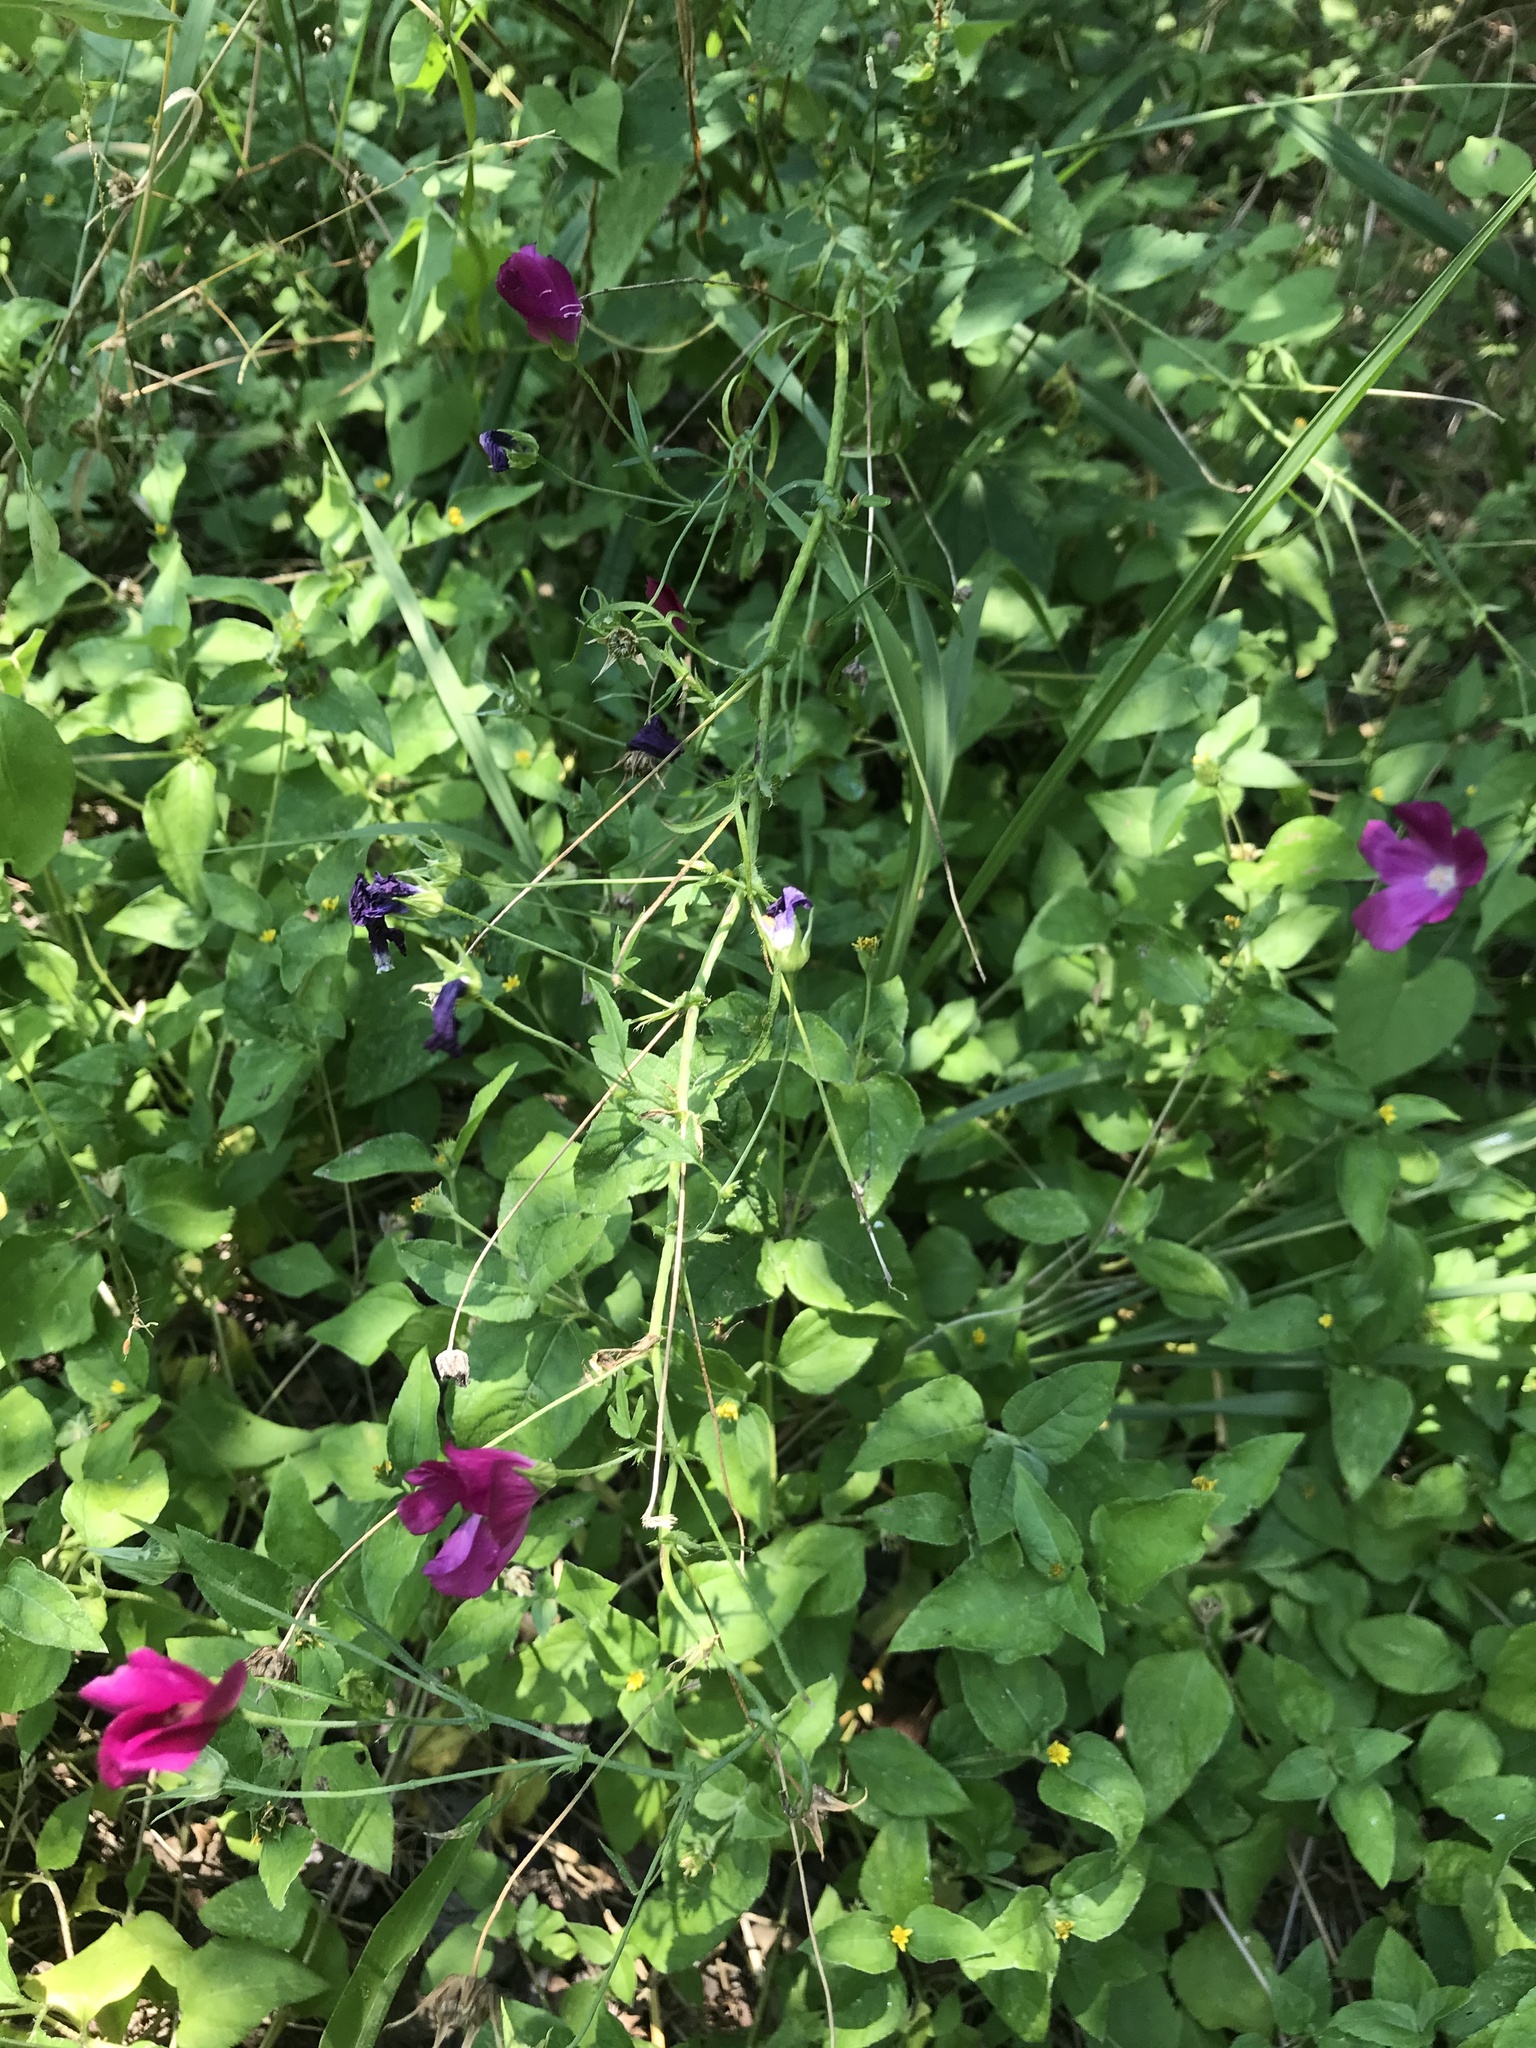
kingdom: Plantae
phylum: Tracheophyta
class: Magnoliopsida
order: Malvales
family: Malvaceae
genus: Callirhoe
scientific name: Callirhoe leiocarpa
